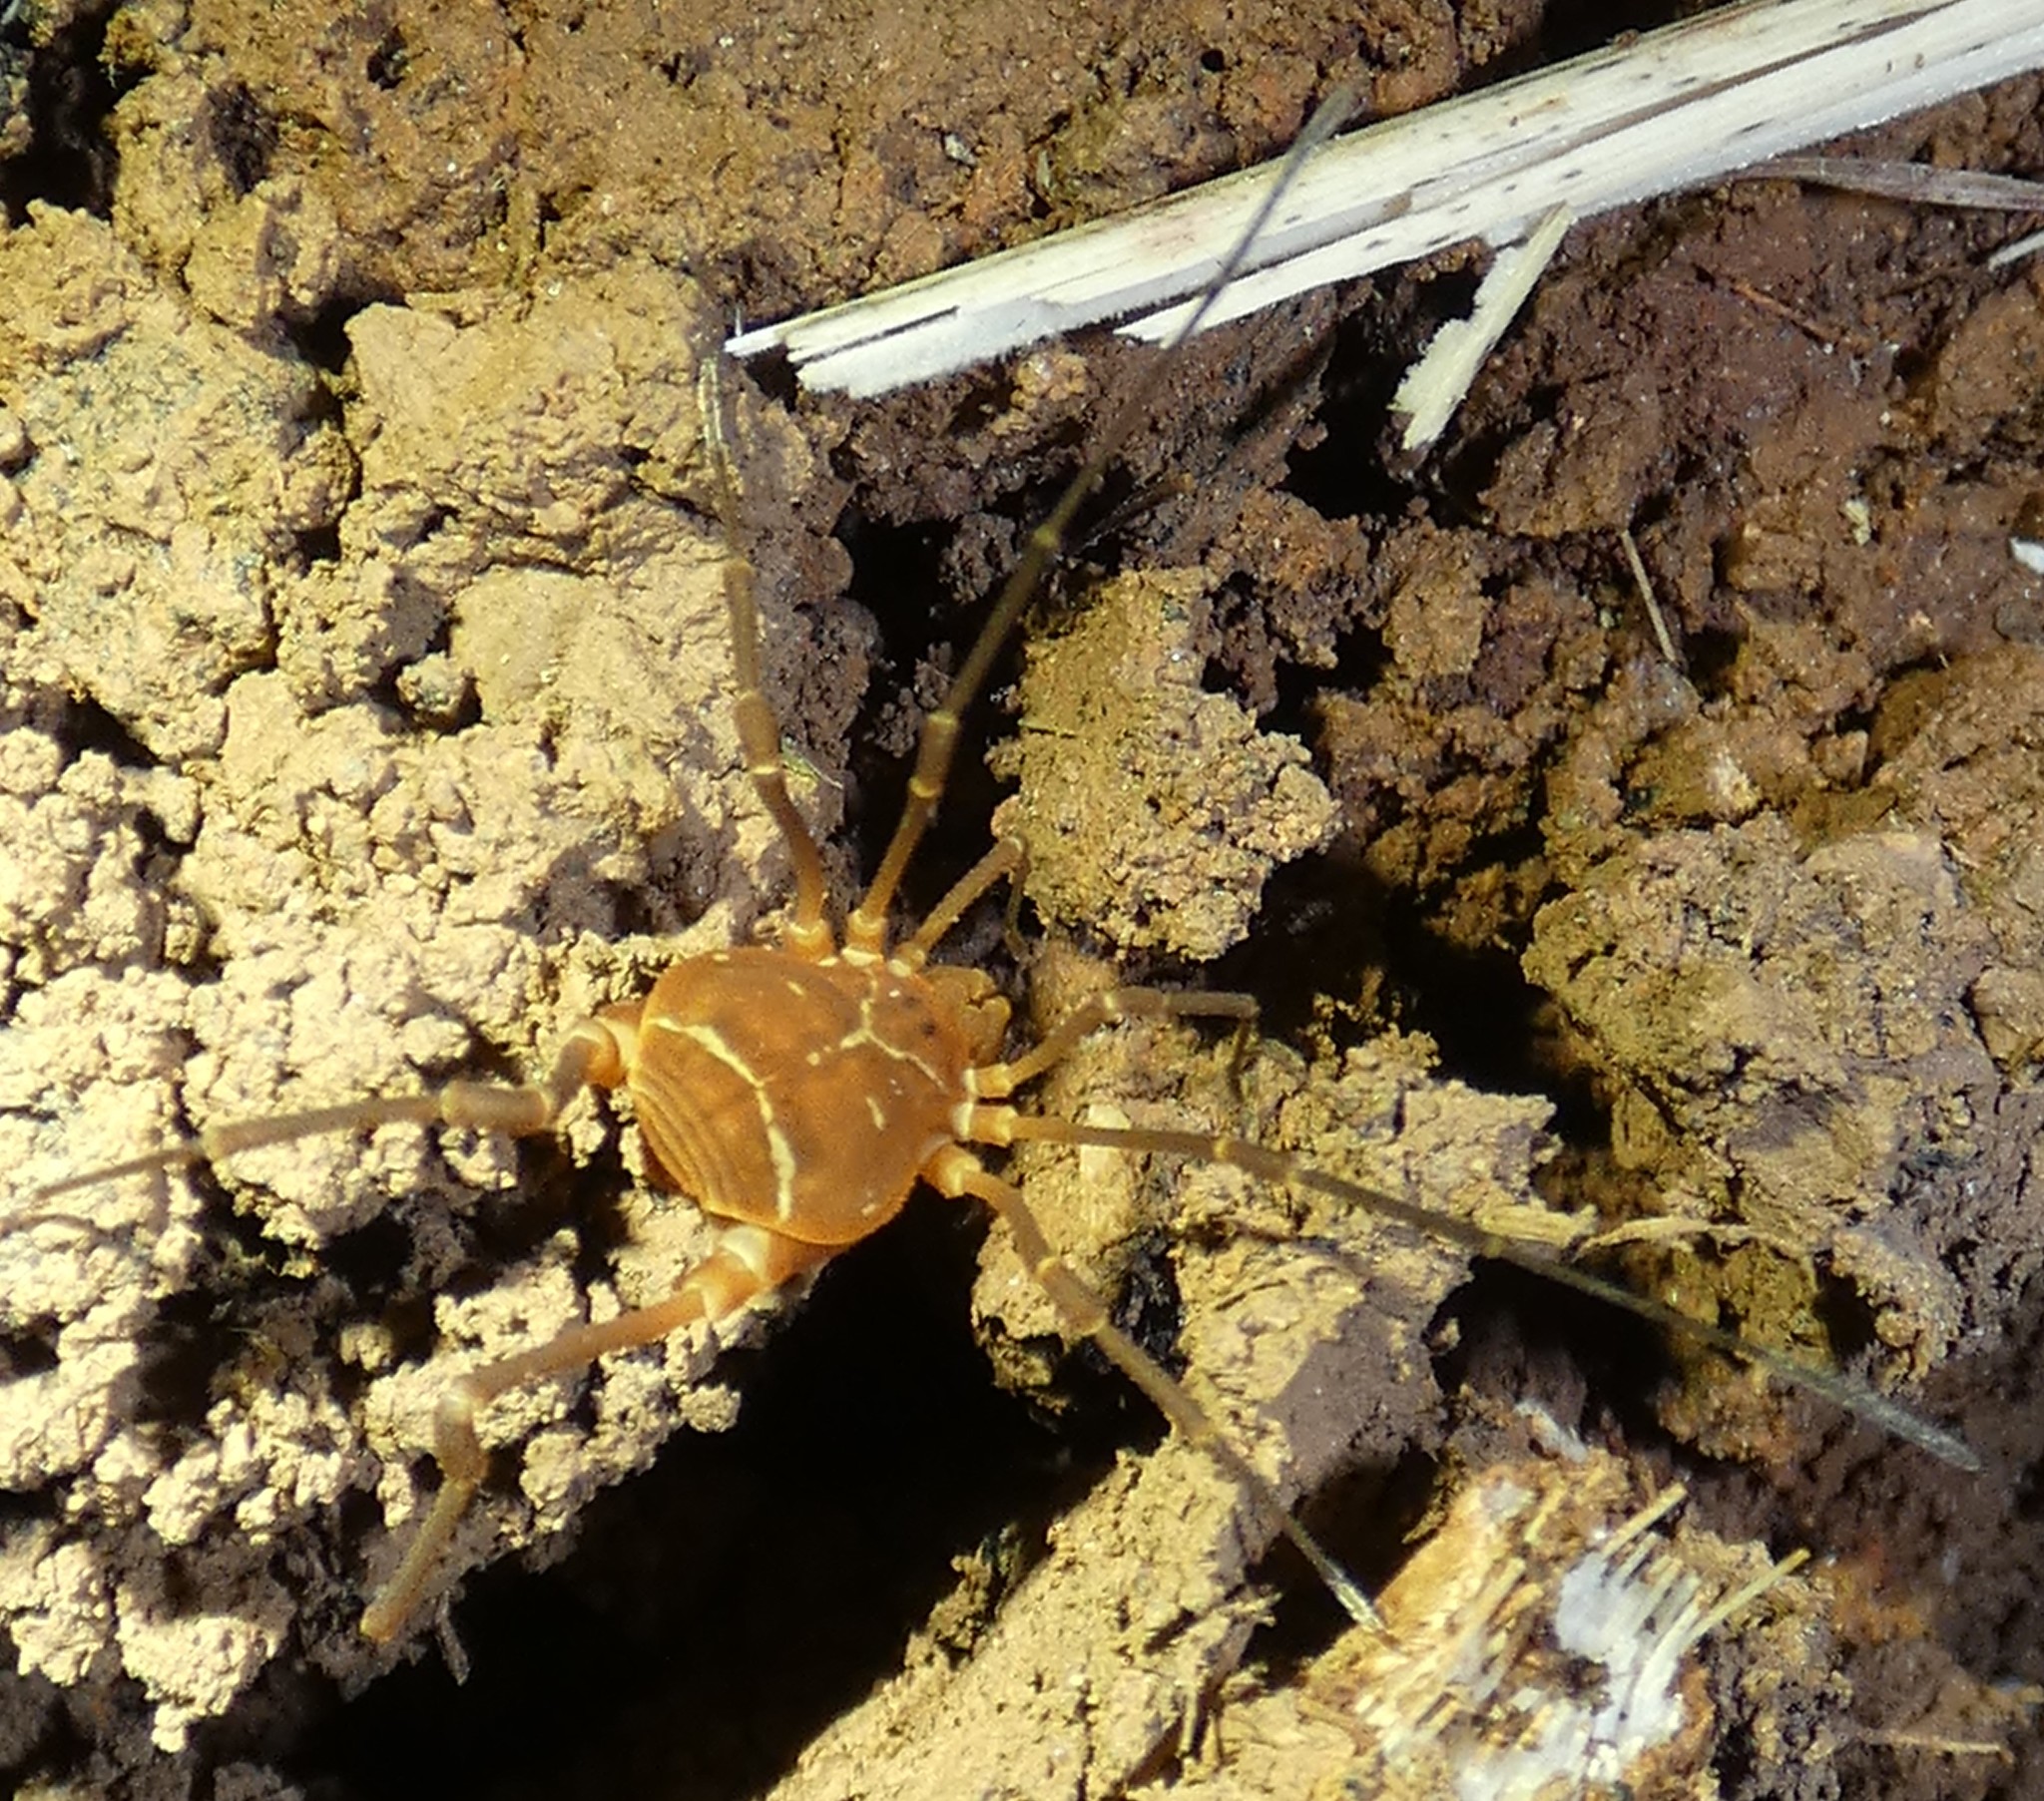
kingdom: Animalia
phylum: Arthropoda
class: Arachnida
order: Opiliones
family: Cosmetidae
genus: Libitioides
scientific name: Libitioides sayi
